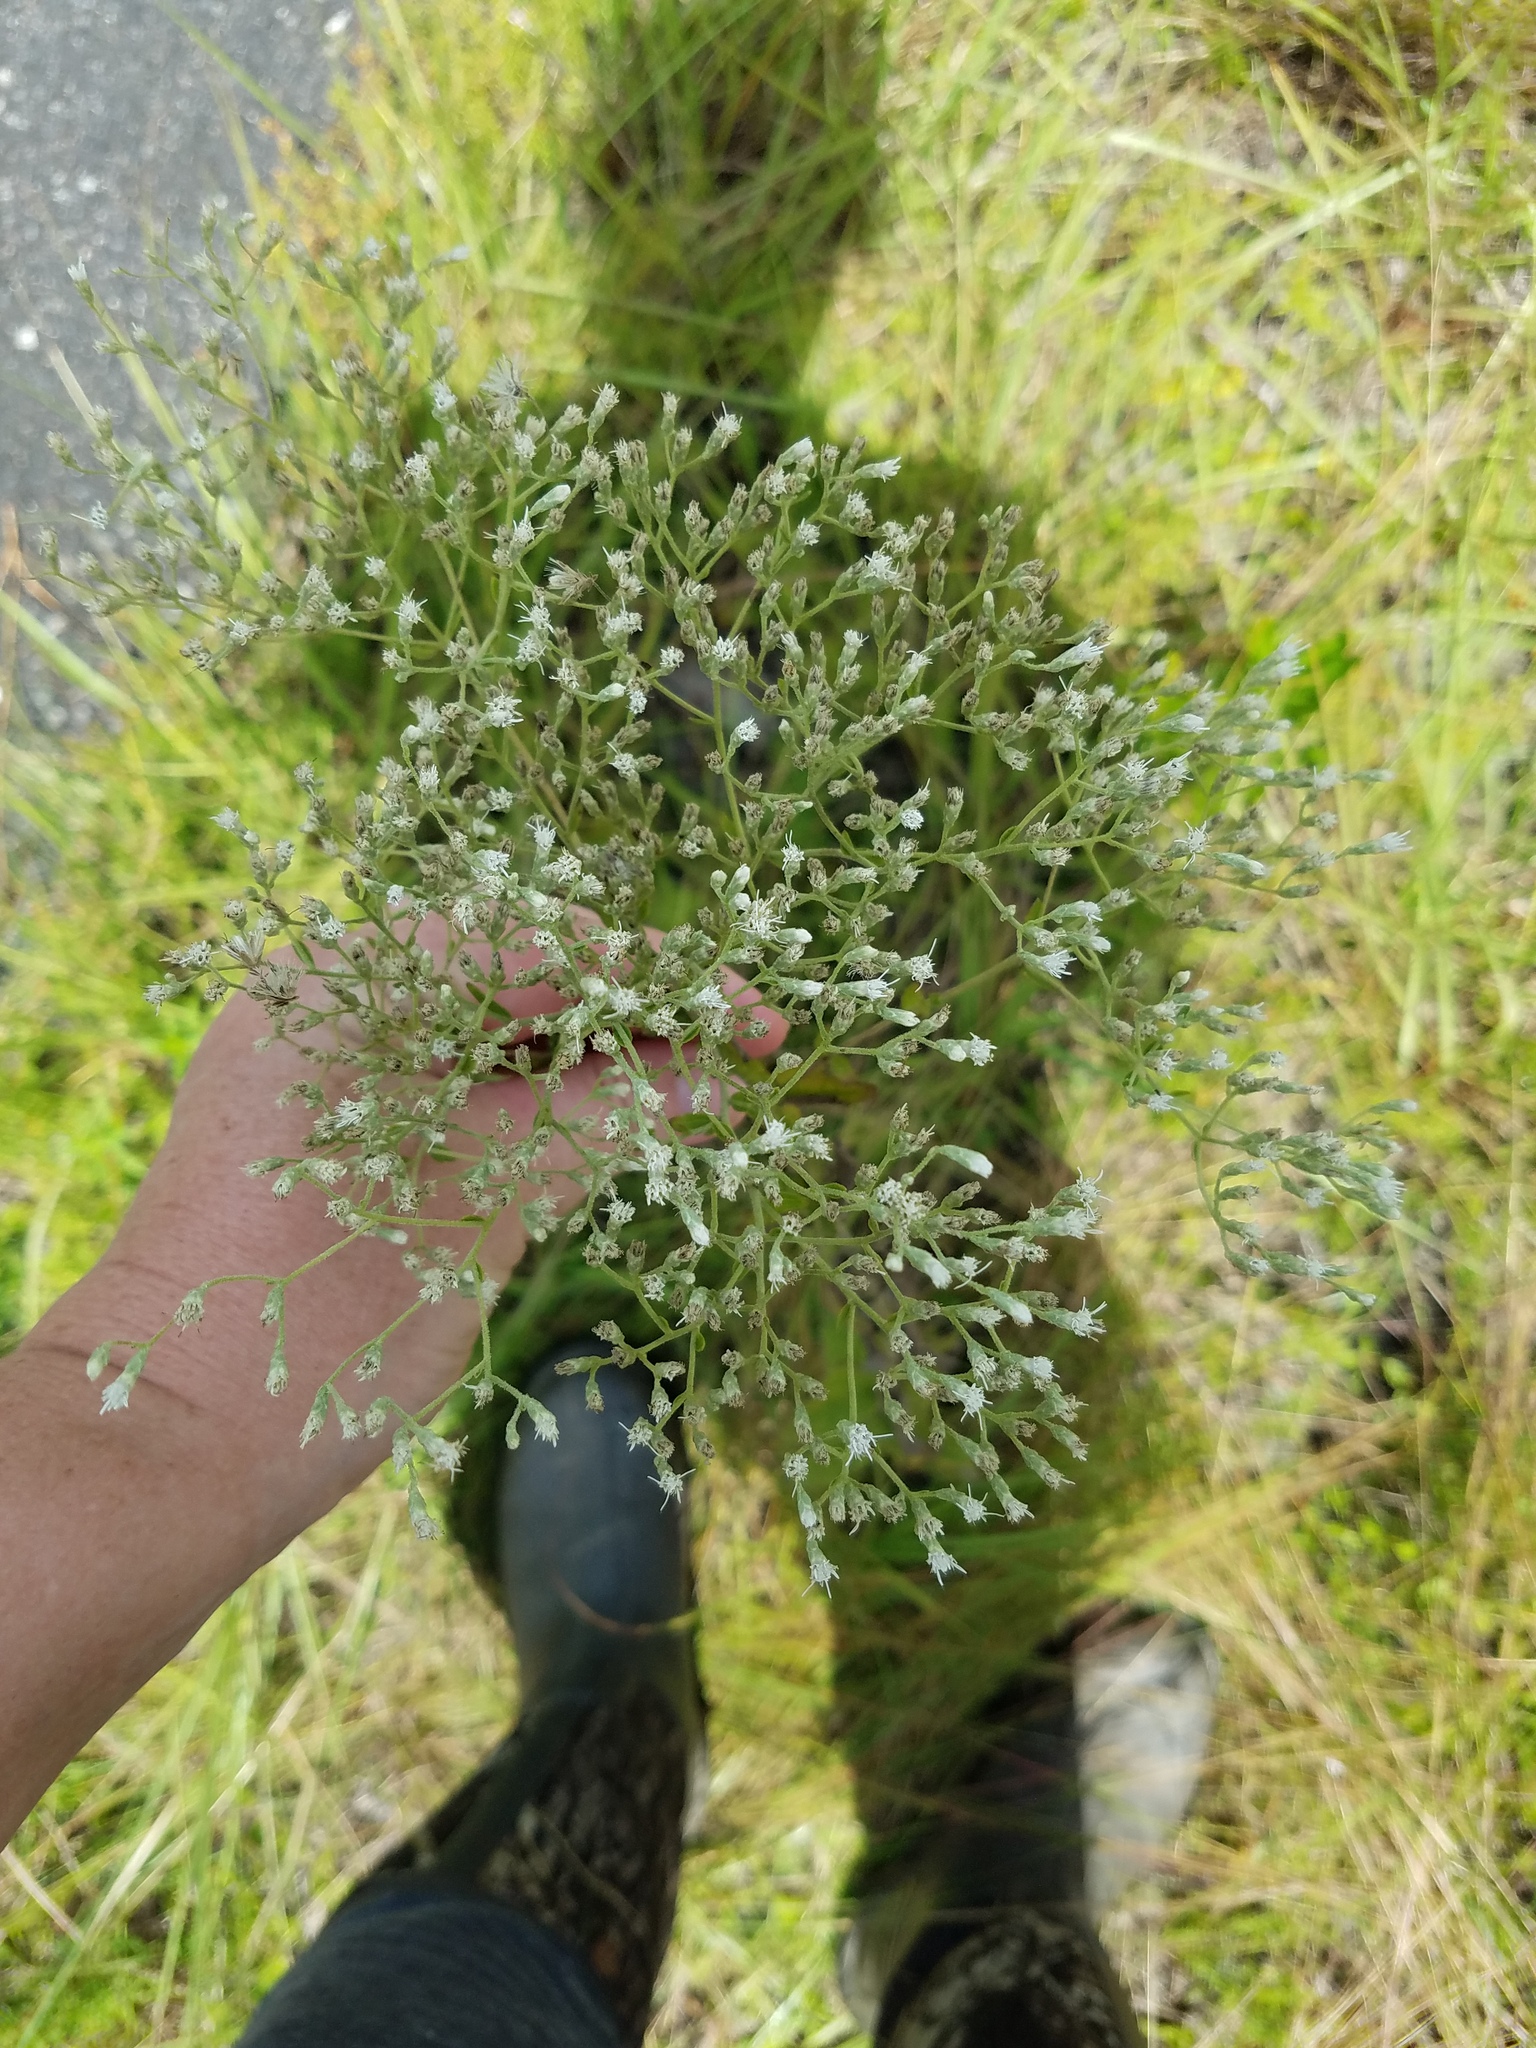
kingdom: Plantae
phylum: Tracheophyta
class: Magnoliopsida
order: Asterales
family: Asteraceae
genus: Eupatorium
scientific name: Eupatorium rotundifolium
